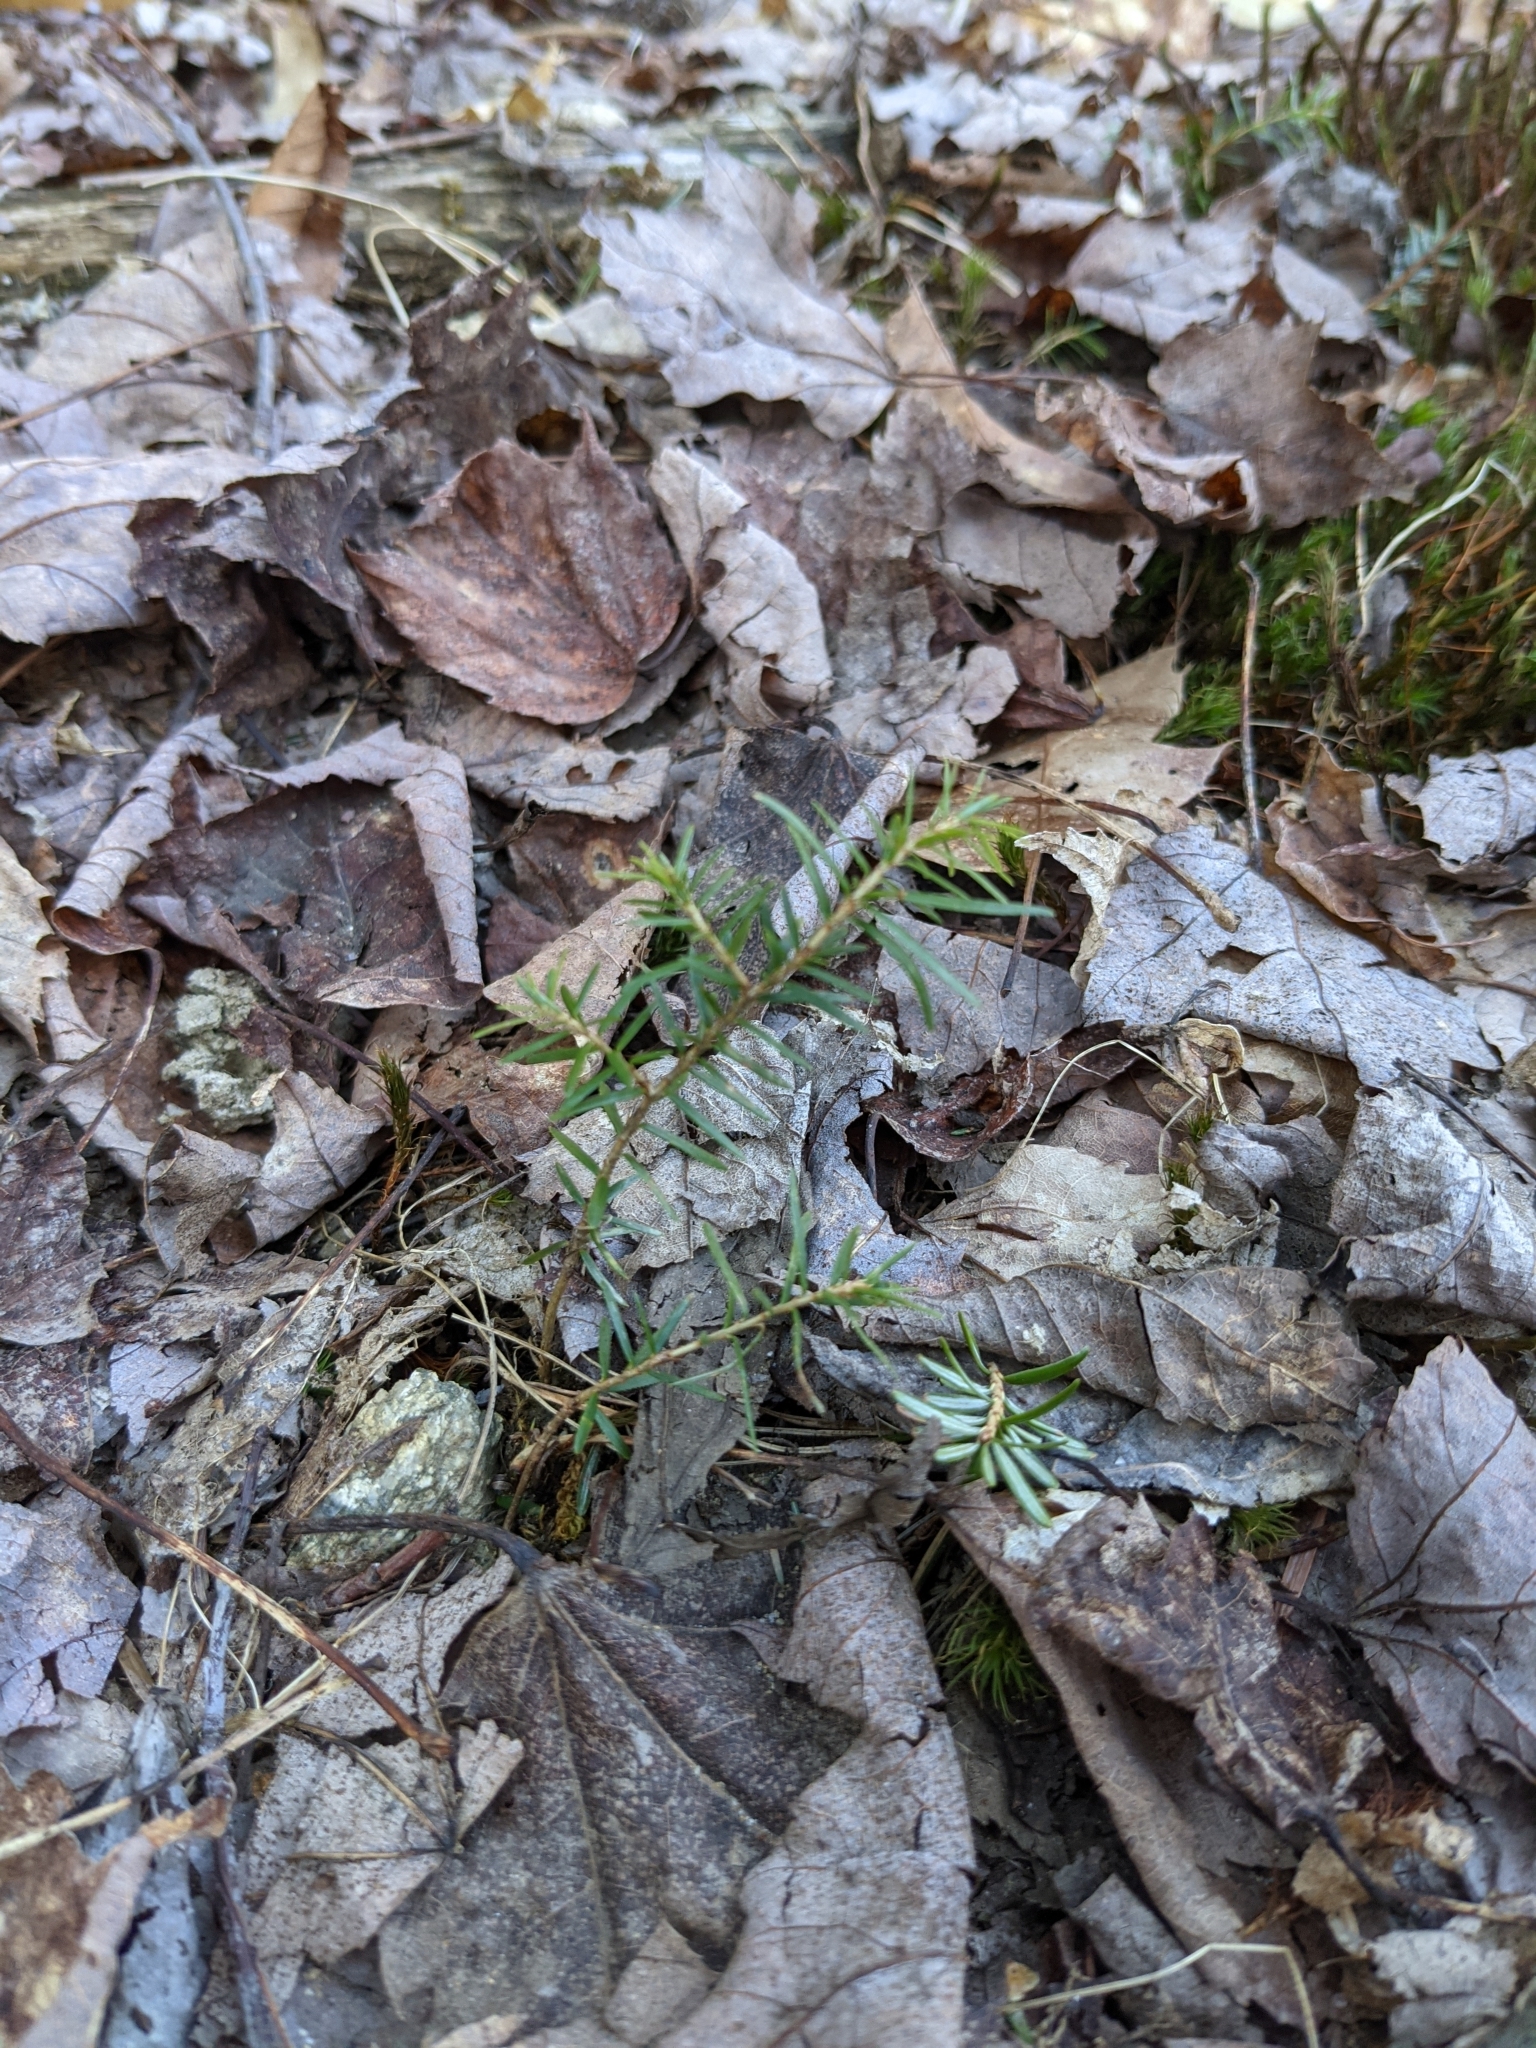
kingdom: Plantae
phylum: Tracheophyta
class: Pinopsida
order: Pinales
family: Pinaceae
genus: Tsuga
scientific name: Tsuga canadensis
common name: Eastern hemlock
